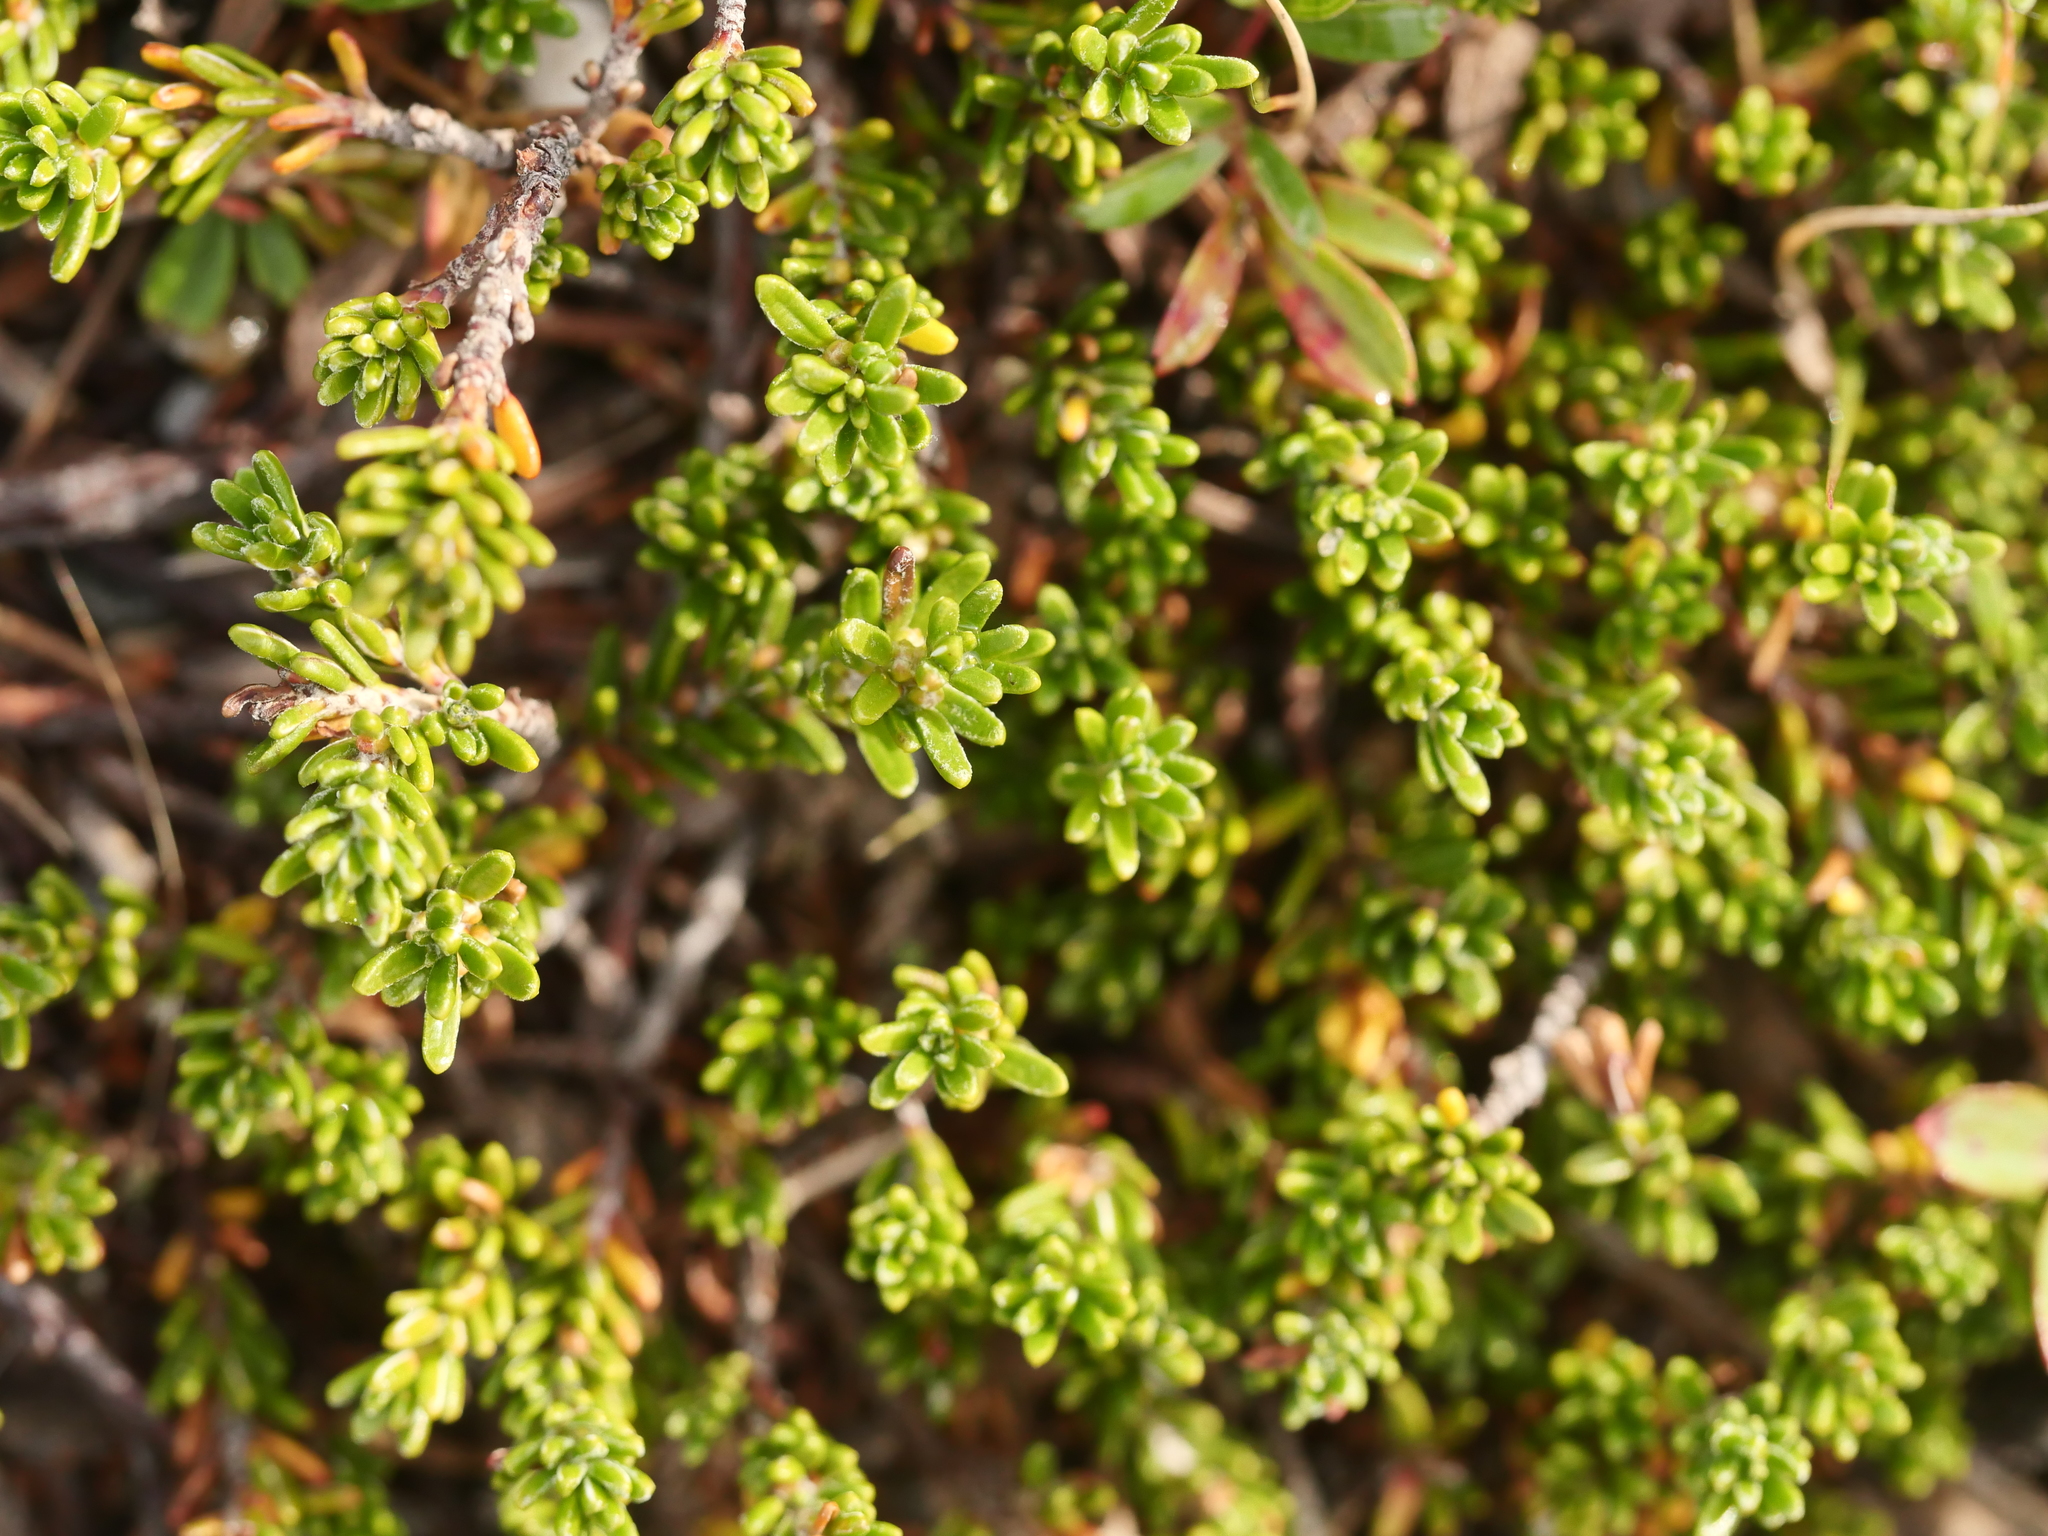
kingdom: Plantae
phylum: Tracheophyta
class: Magnoliopsida
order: Ericales
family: Ericaceae
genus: Empetrum
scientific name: Empetrum nigrum
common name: Black crowberry
